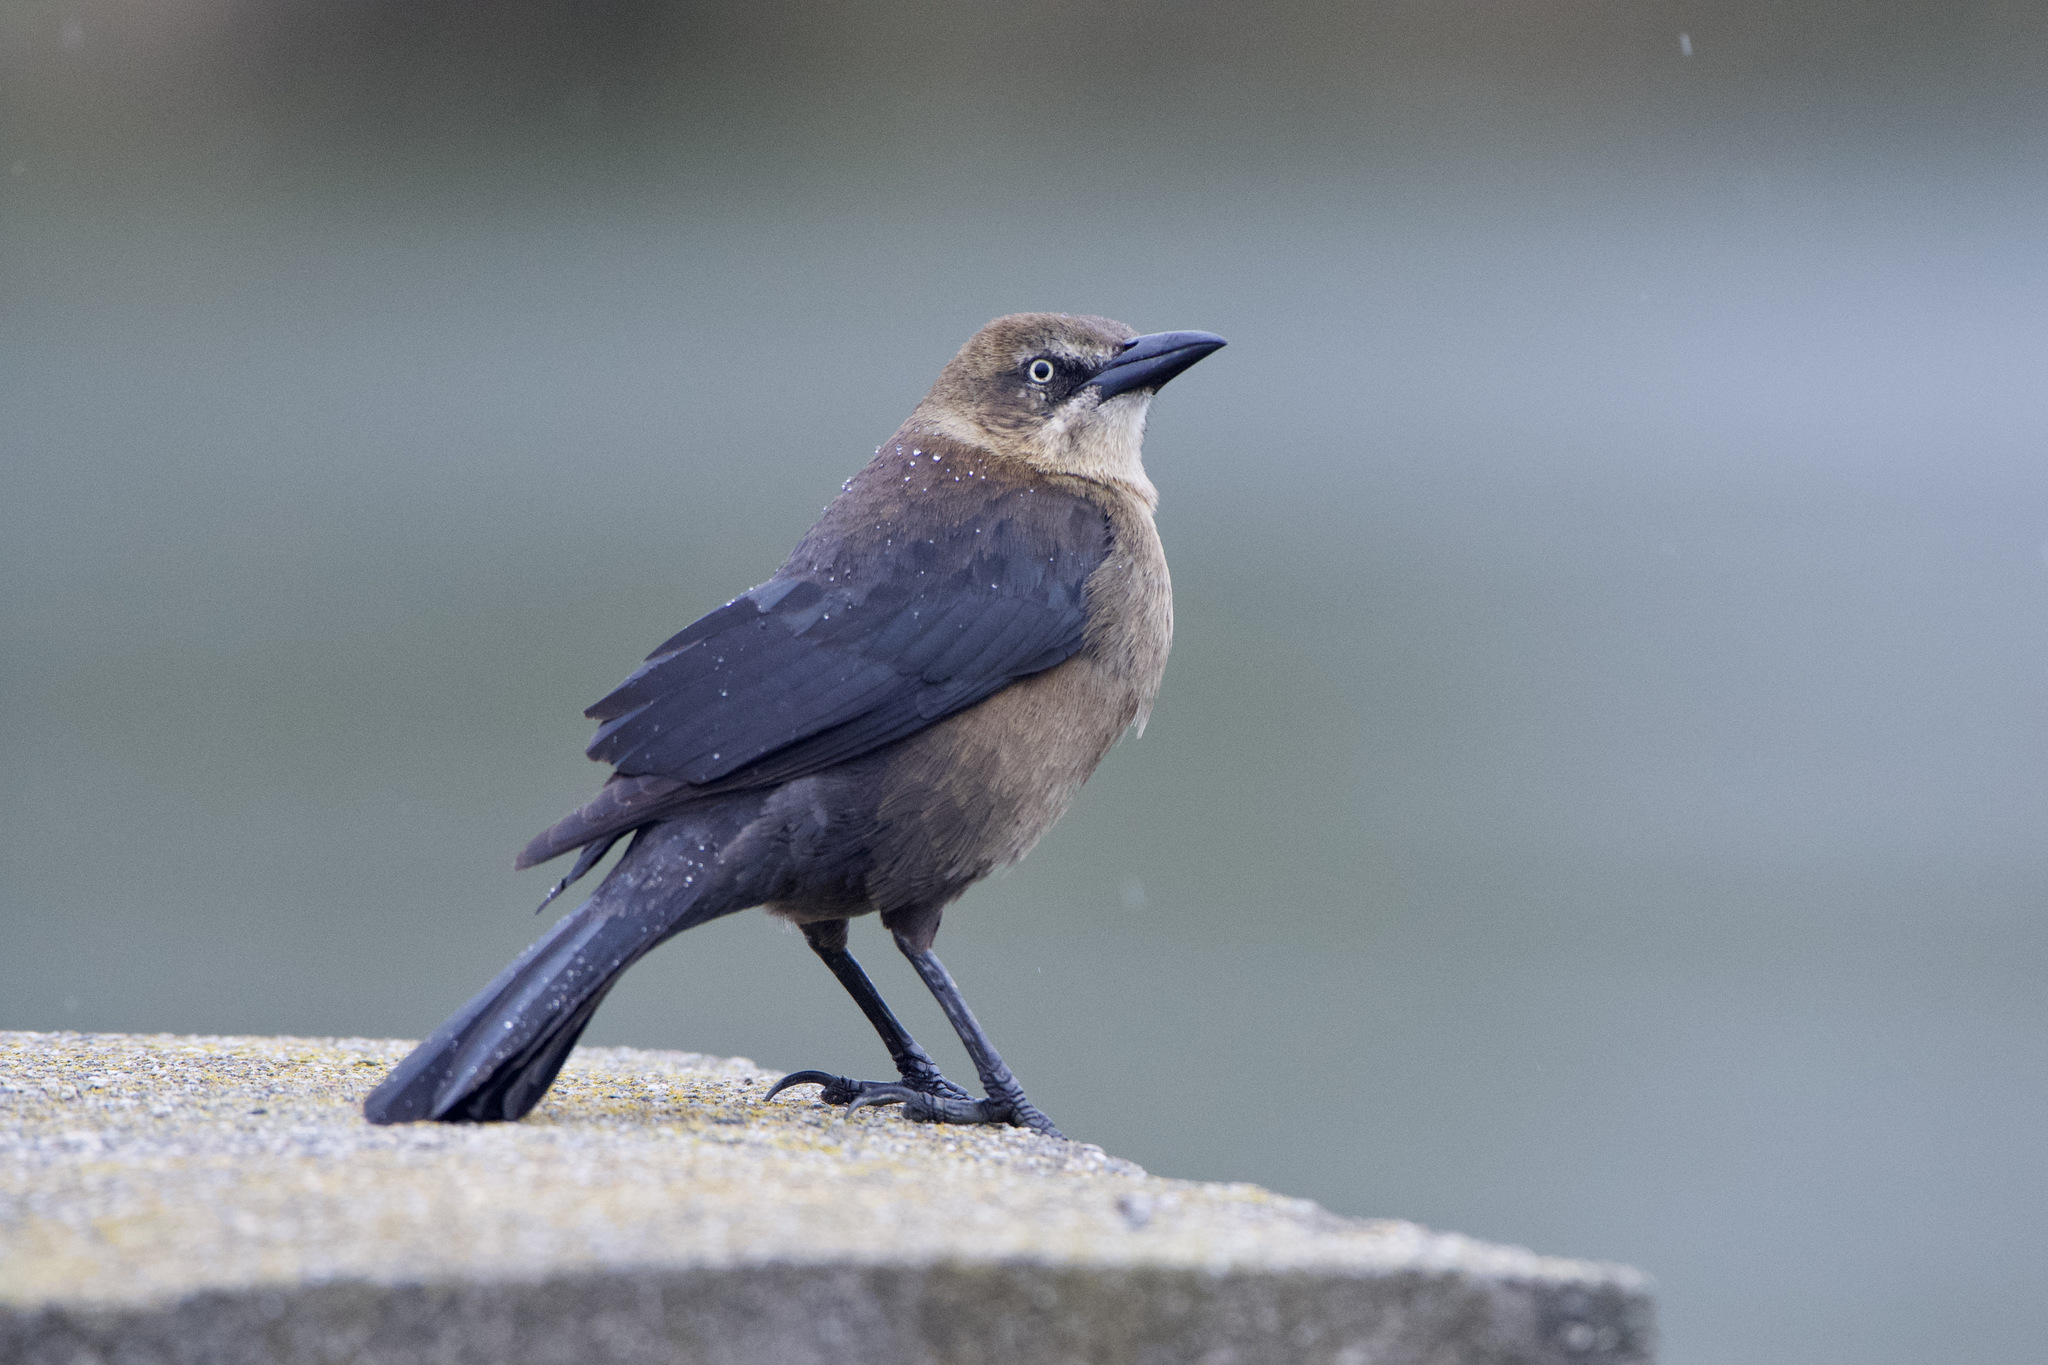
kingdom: Animalia
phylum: Chordata
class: Aves
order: Passeriformes
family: Icteridae
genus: Quiscalus
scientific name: Quiscalus mexicanus
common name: Great-tailed grackle
